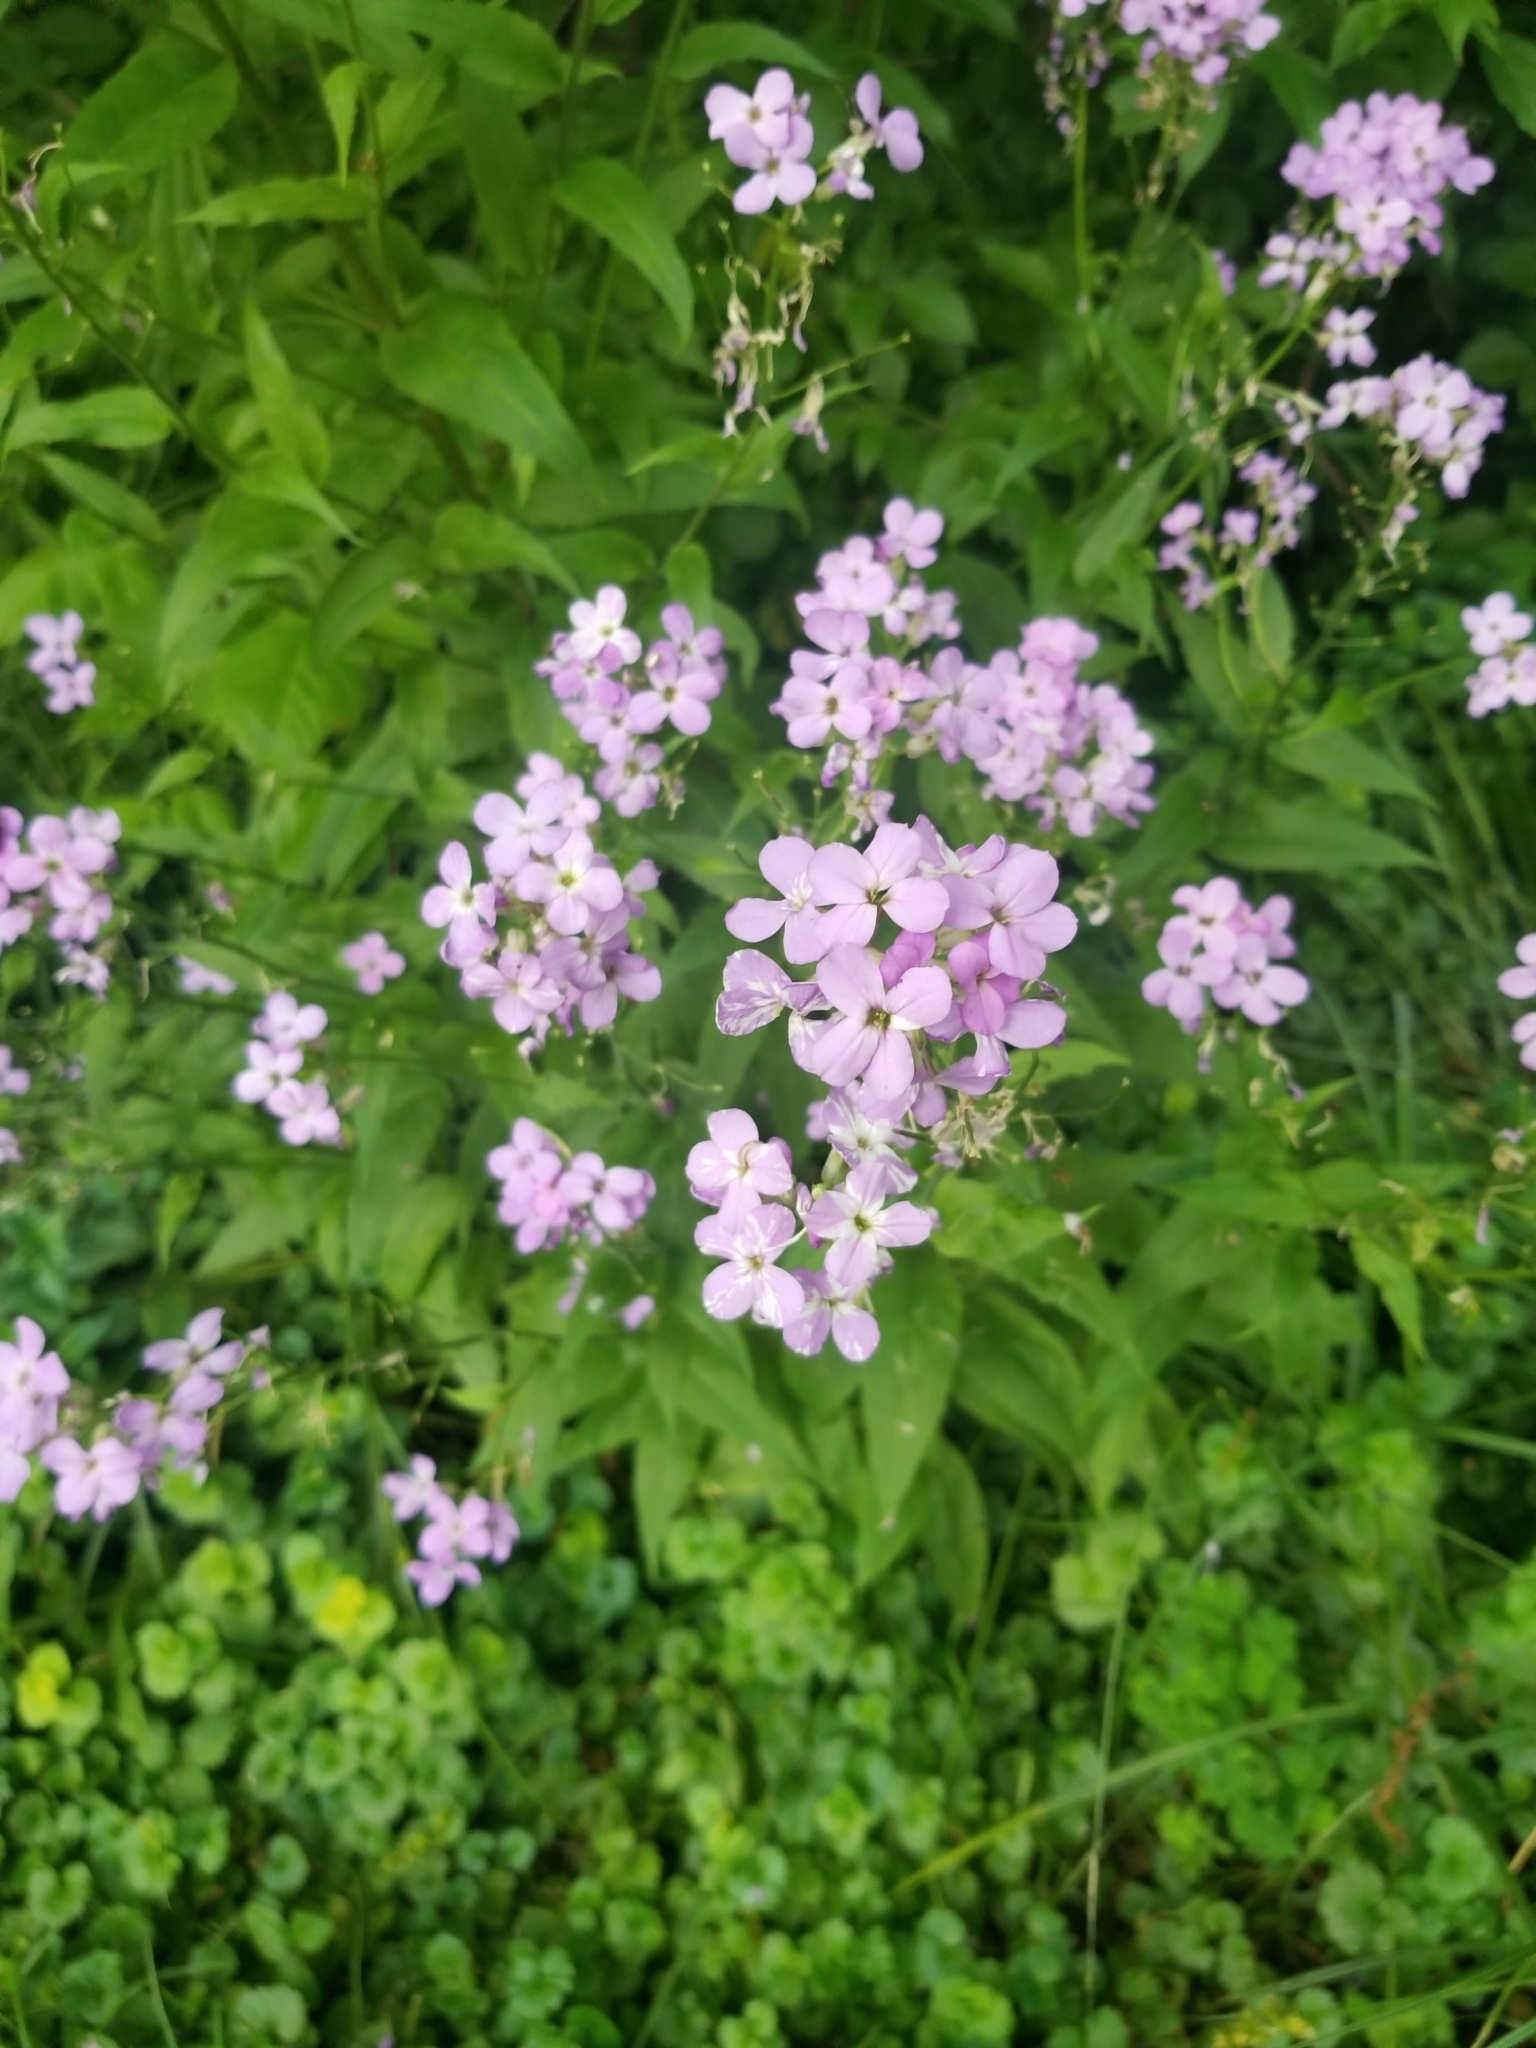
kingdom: Plantae
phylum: Tracheophyta
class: Magnoliopsida
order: Brassicales
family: Brassicaceae
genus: Hesperis
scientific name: Hesperis matronalis
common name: Dame's-violet
